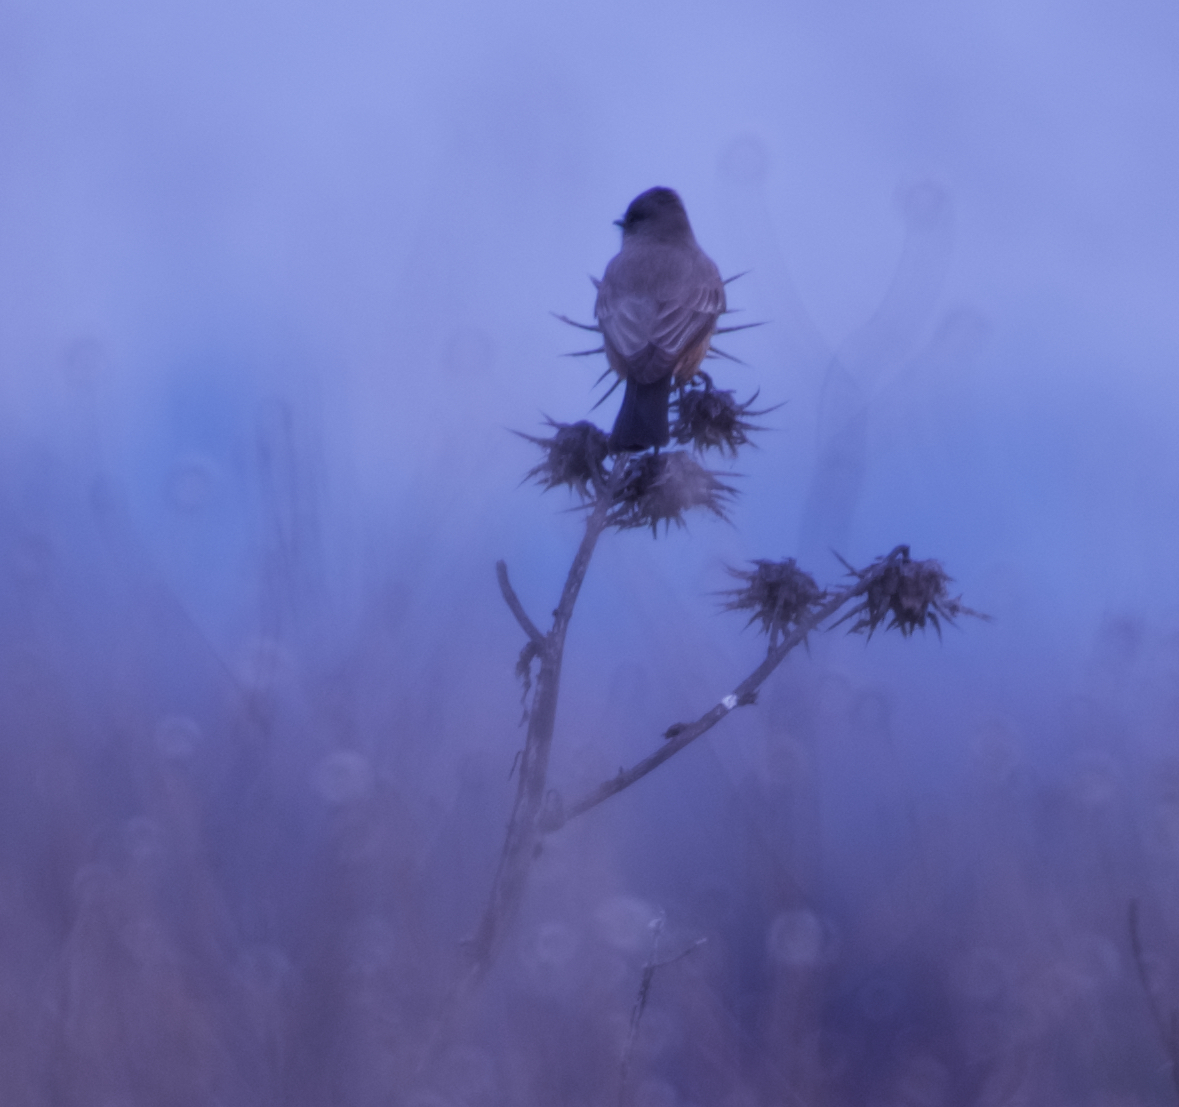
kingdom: Animalia
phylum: Chordata
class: Aves
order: Passeriformes
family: Tyrannidae
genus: Sayornis
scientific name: Sayornis saya
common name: Say's phoebe
